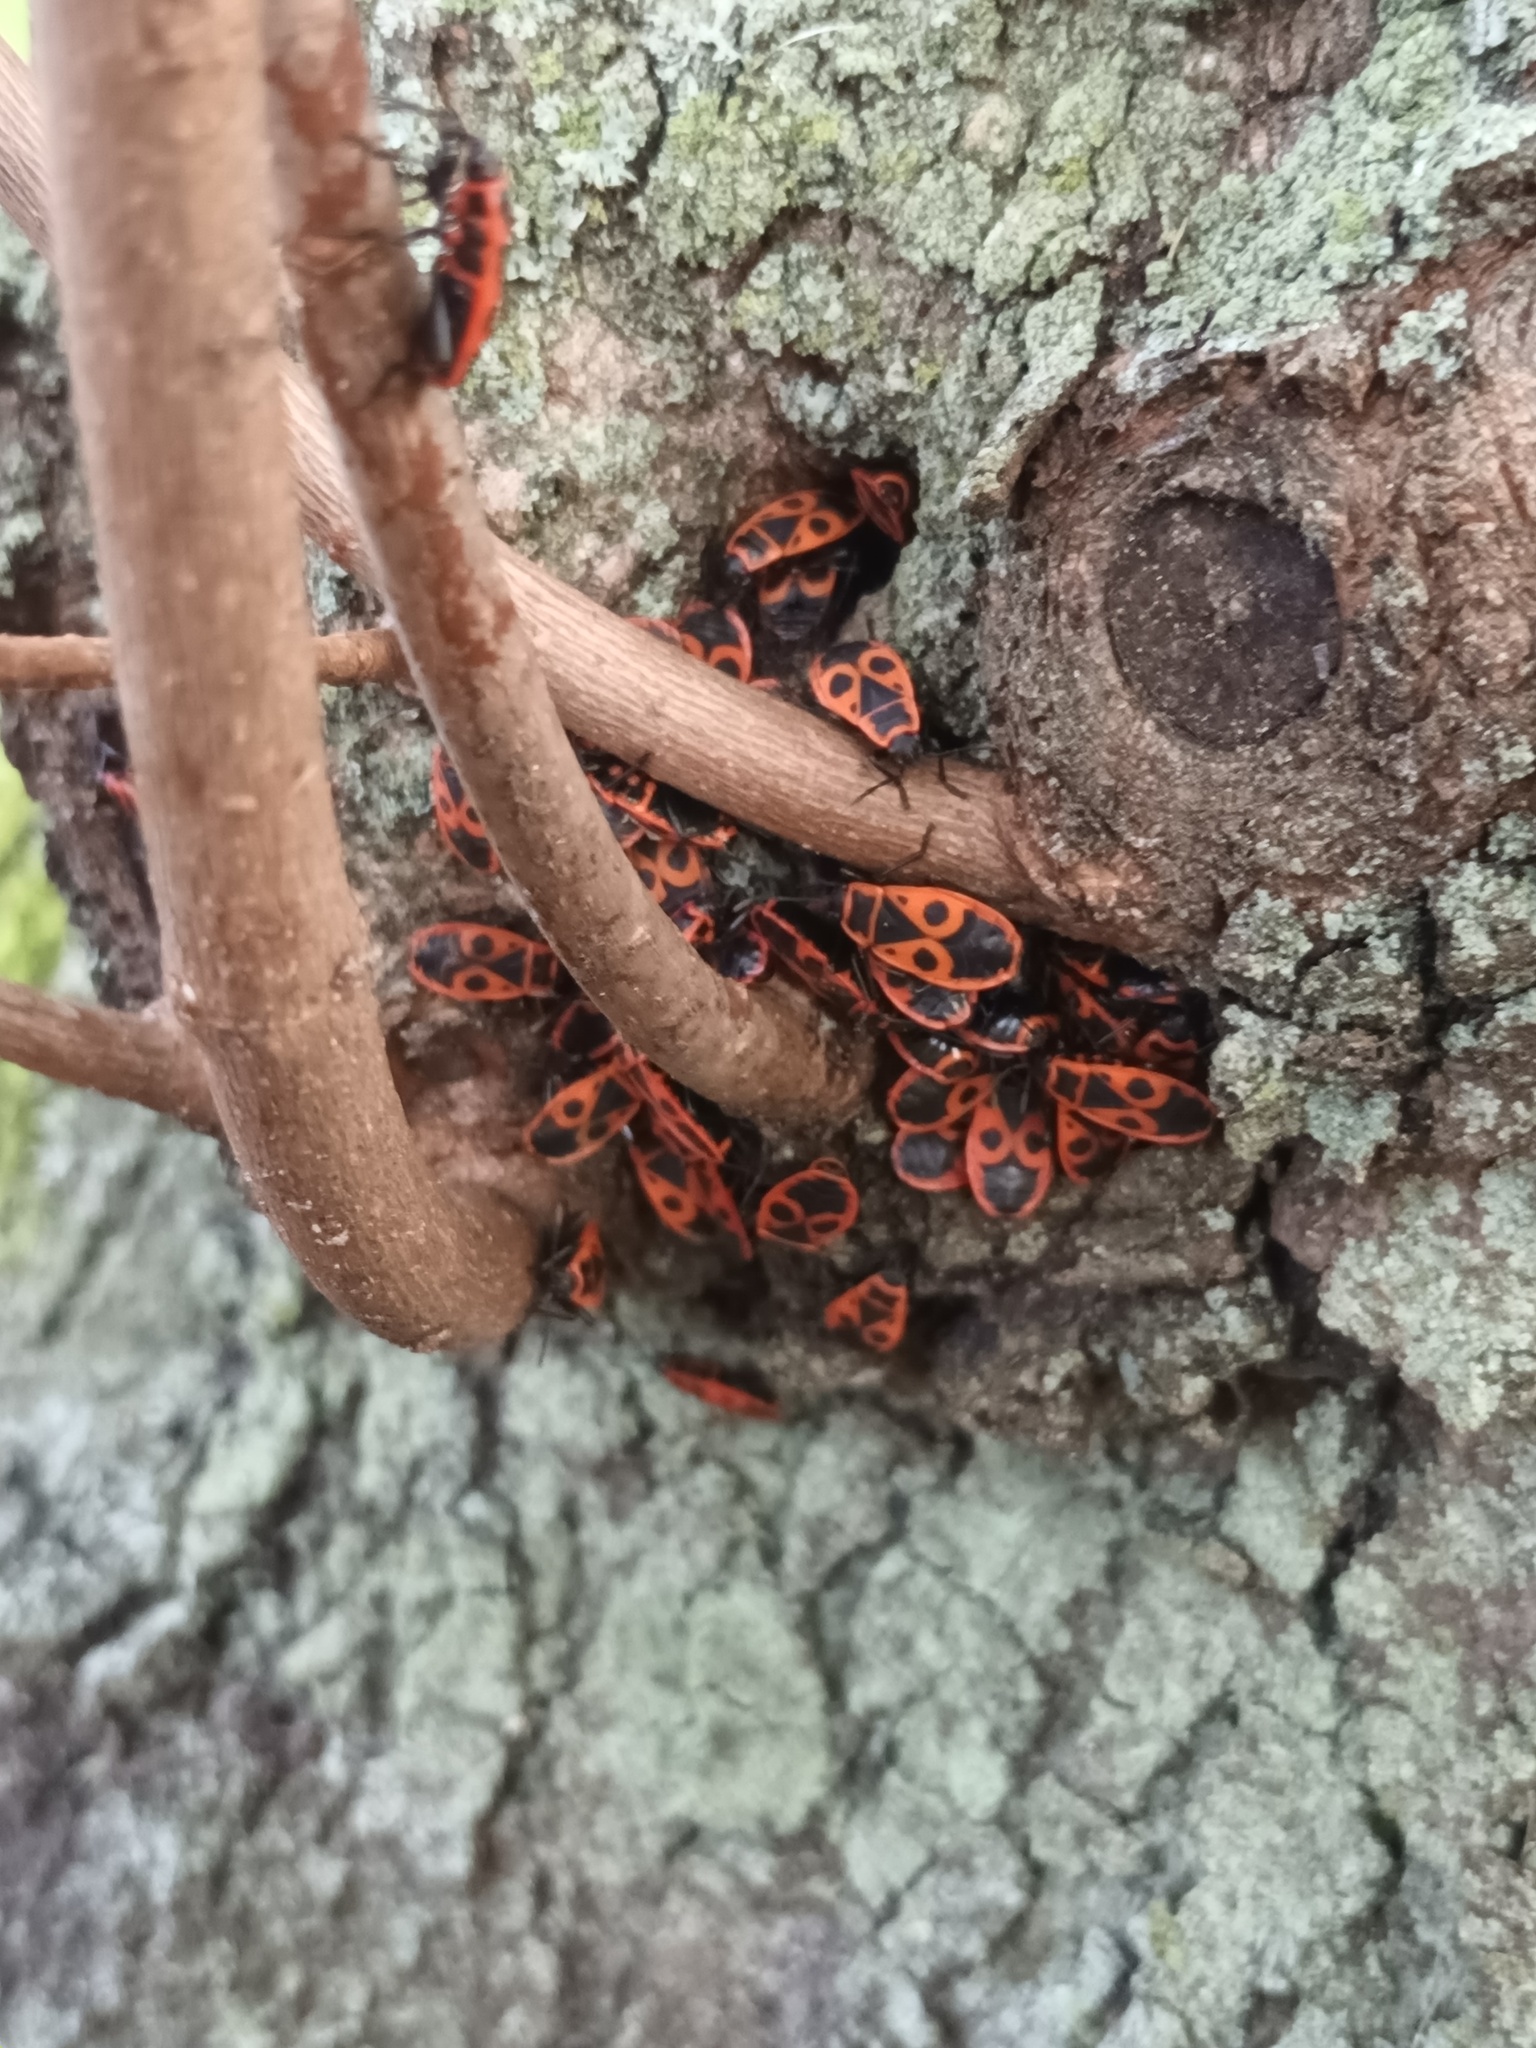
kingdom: Animalia
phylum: Arthropoda
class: Insecta
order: Hemiptera
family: Pyrrhocoridae
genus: Pyrrhocoris
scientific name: Pyrrhocoris apterus
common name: Firebug
